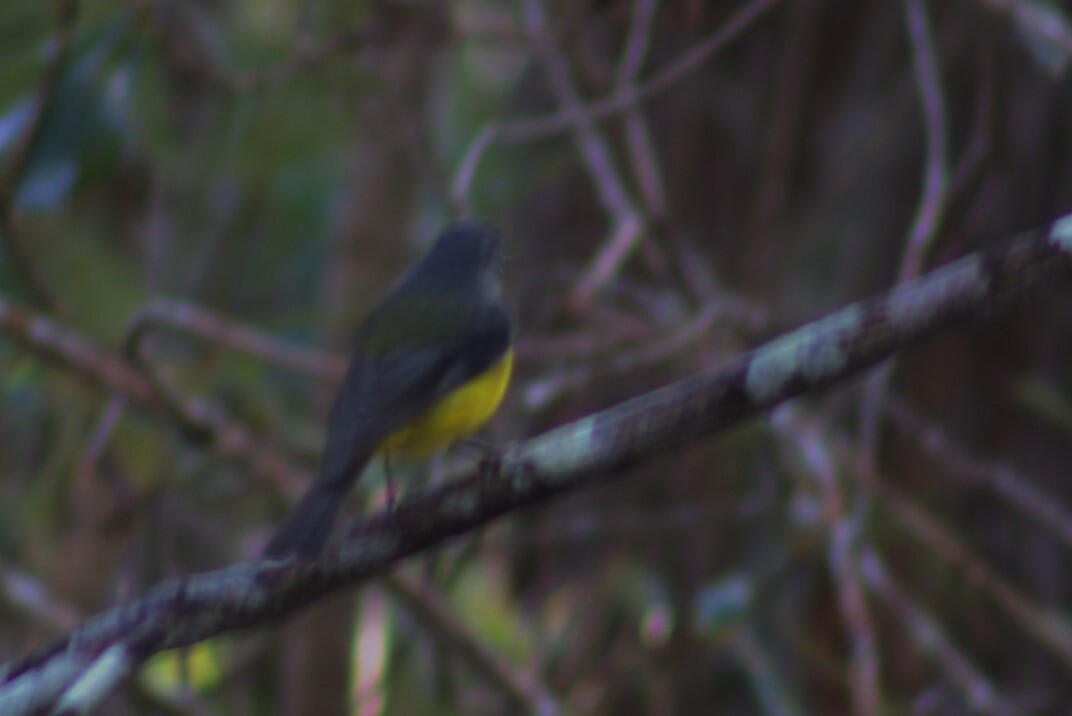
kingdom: Animalia
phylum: Chordata
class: Aves
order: Passeriformes
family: Petroicidae
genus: Eopsaltria
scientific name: Eopsaltria australis
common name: Eastern yellow robin
